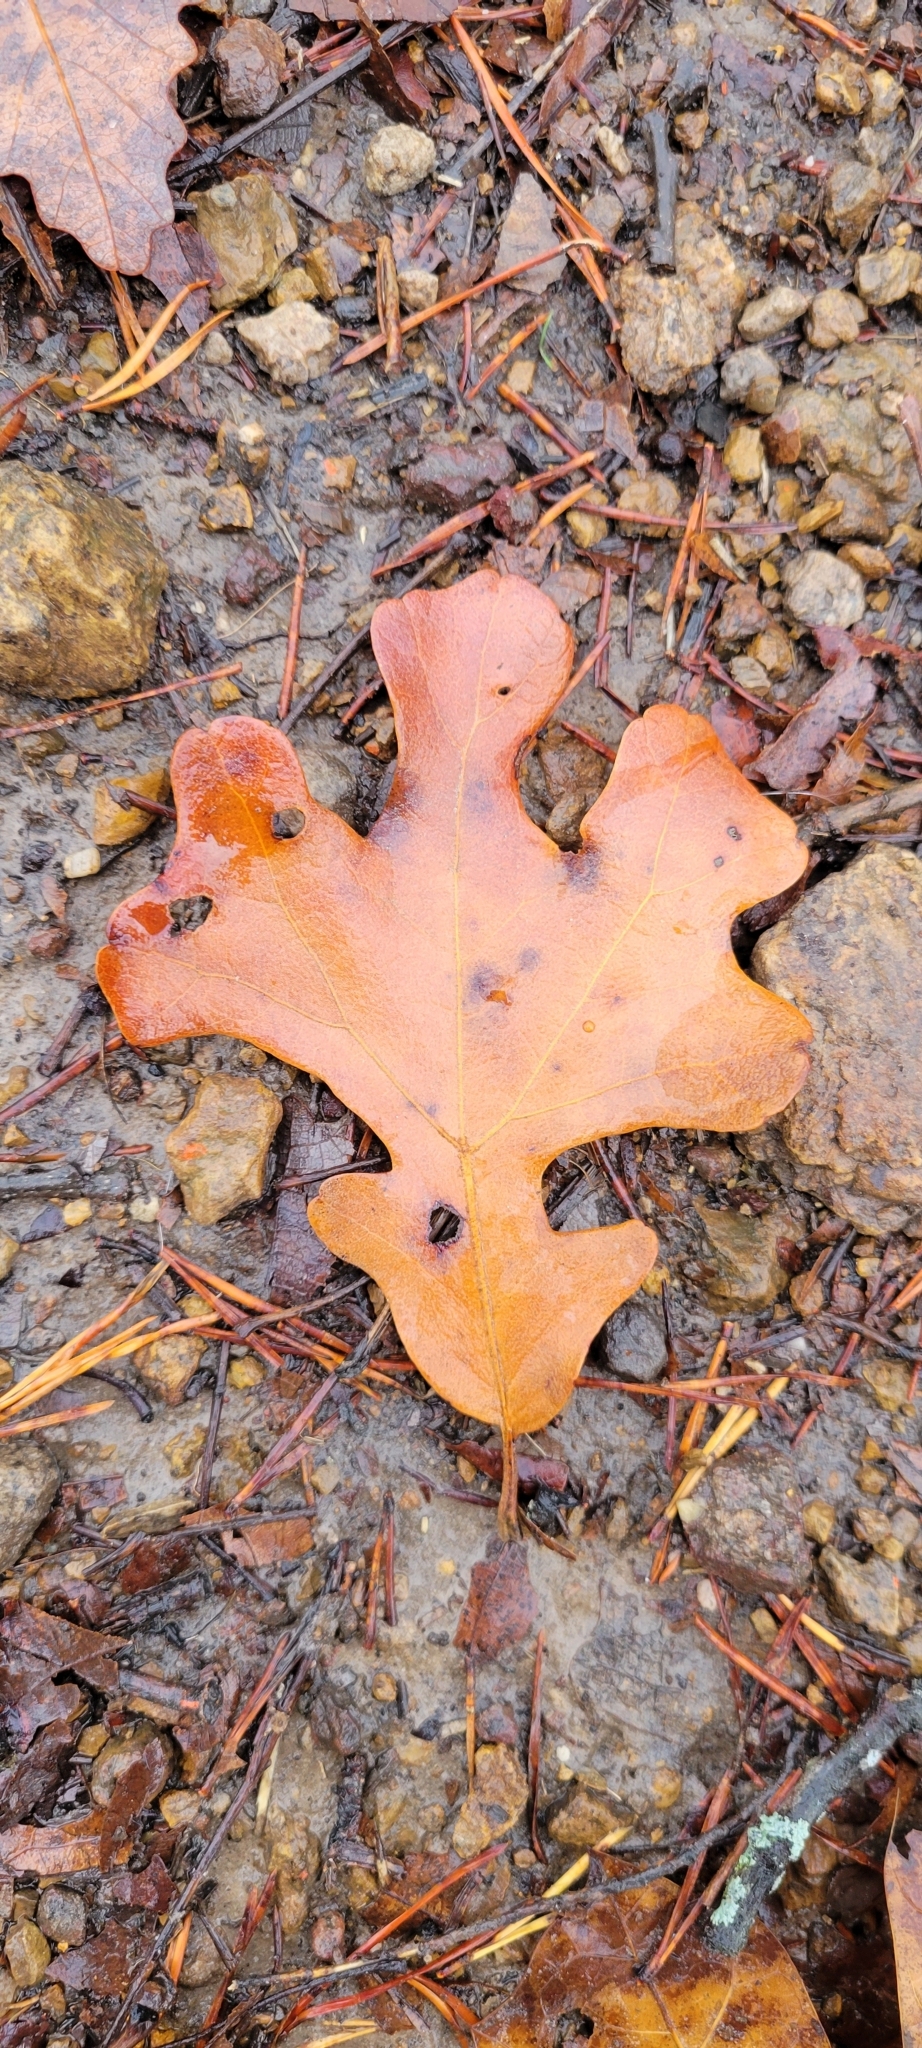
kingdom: Plantae
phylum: Tracheophyta
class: Magnoliopsida
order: Fagales
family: Fagaceae
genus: Quercus
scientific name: Quercus stellata
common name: Post oak
